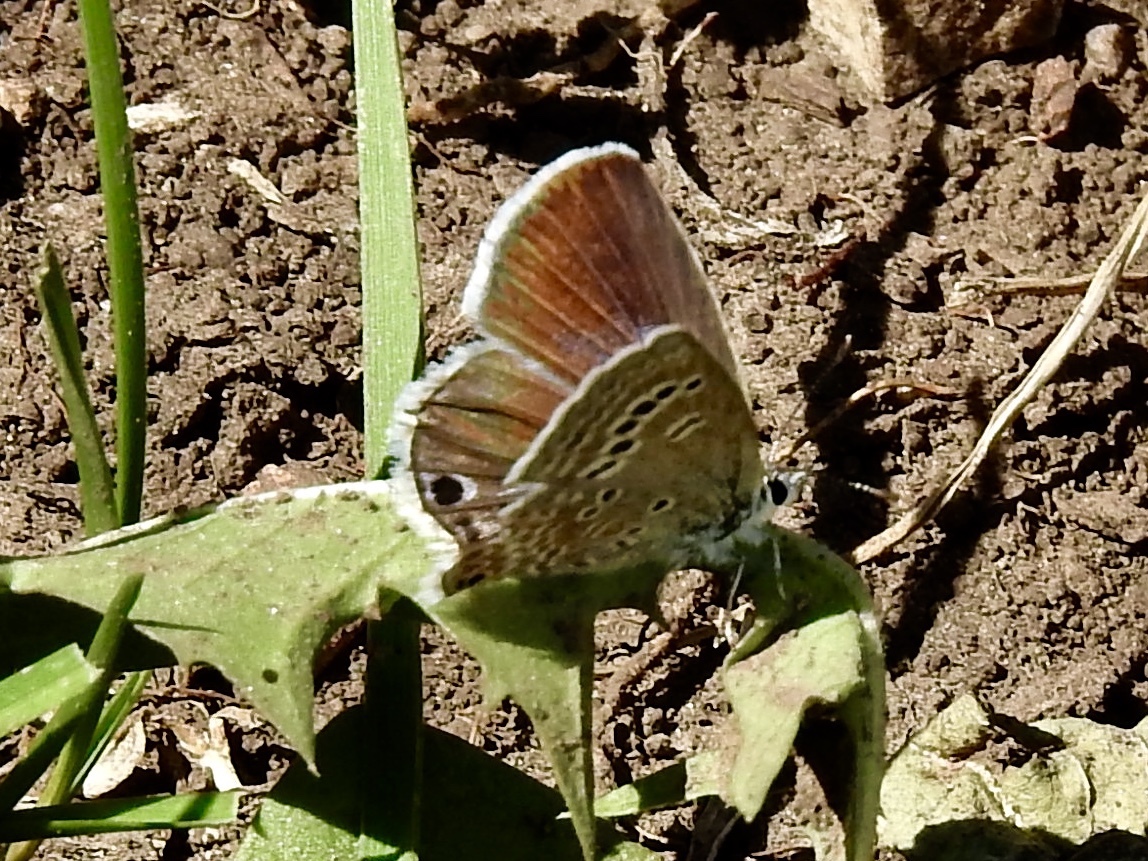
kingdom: Animalia
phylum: Arthropoda
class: Insecta
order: Lepidoptera
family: Lycaenidae
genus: Echinargus
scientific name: Echinargus isola
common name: Reakirt's blue
